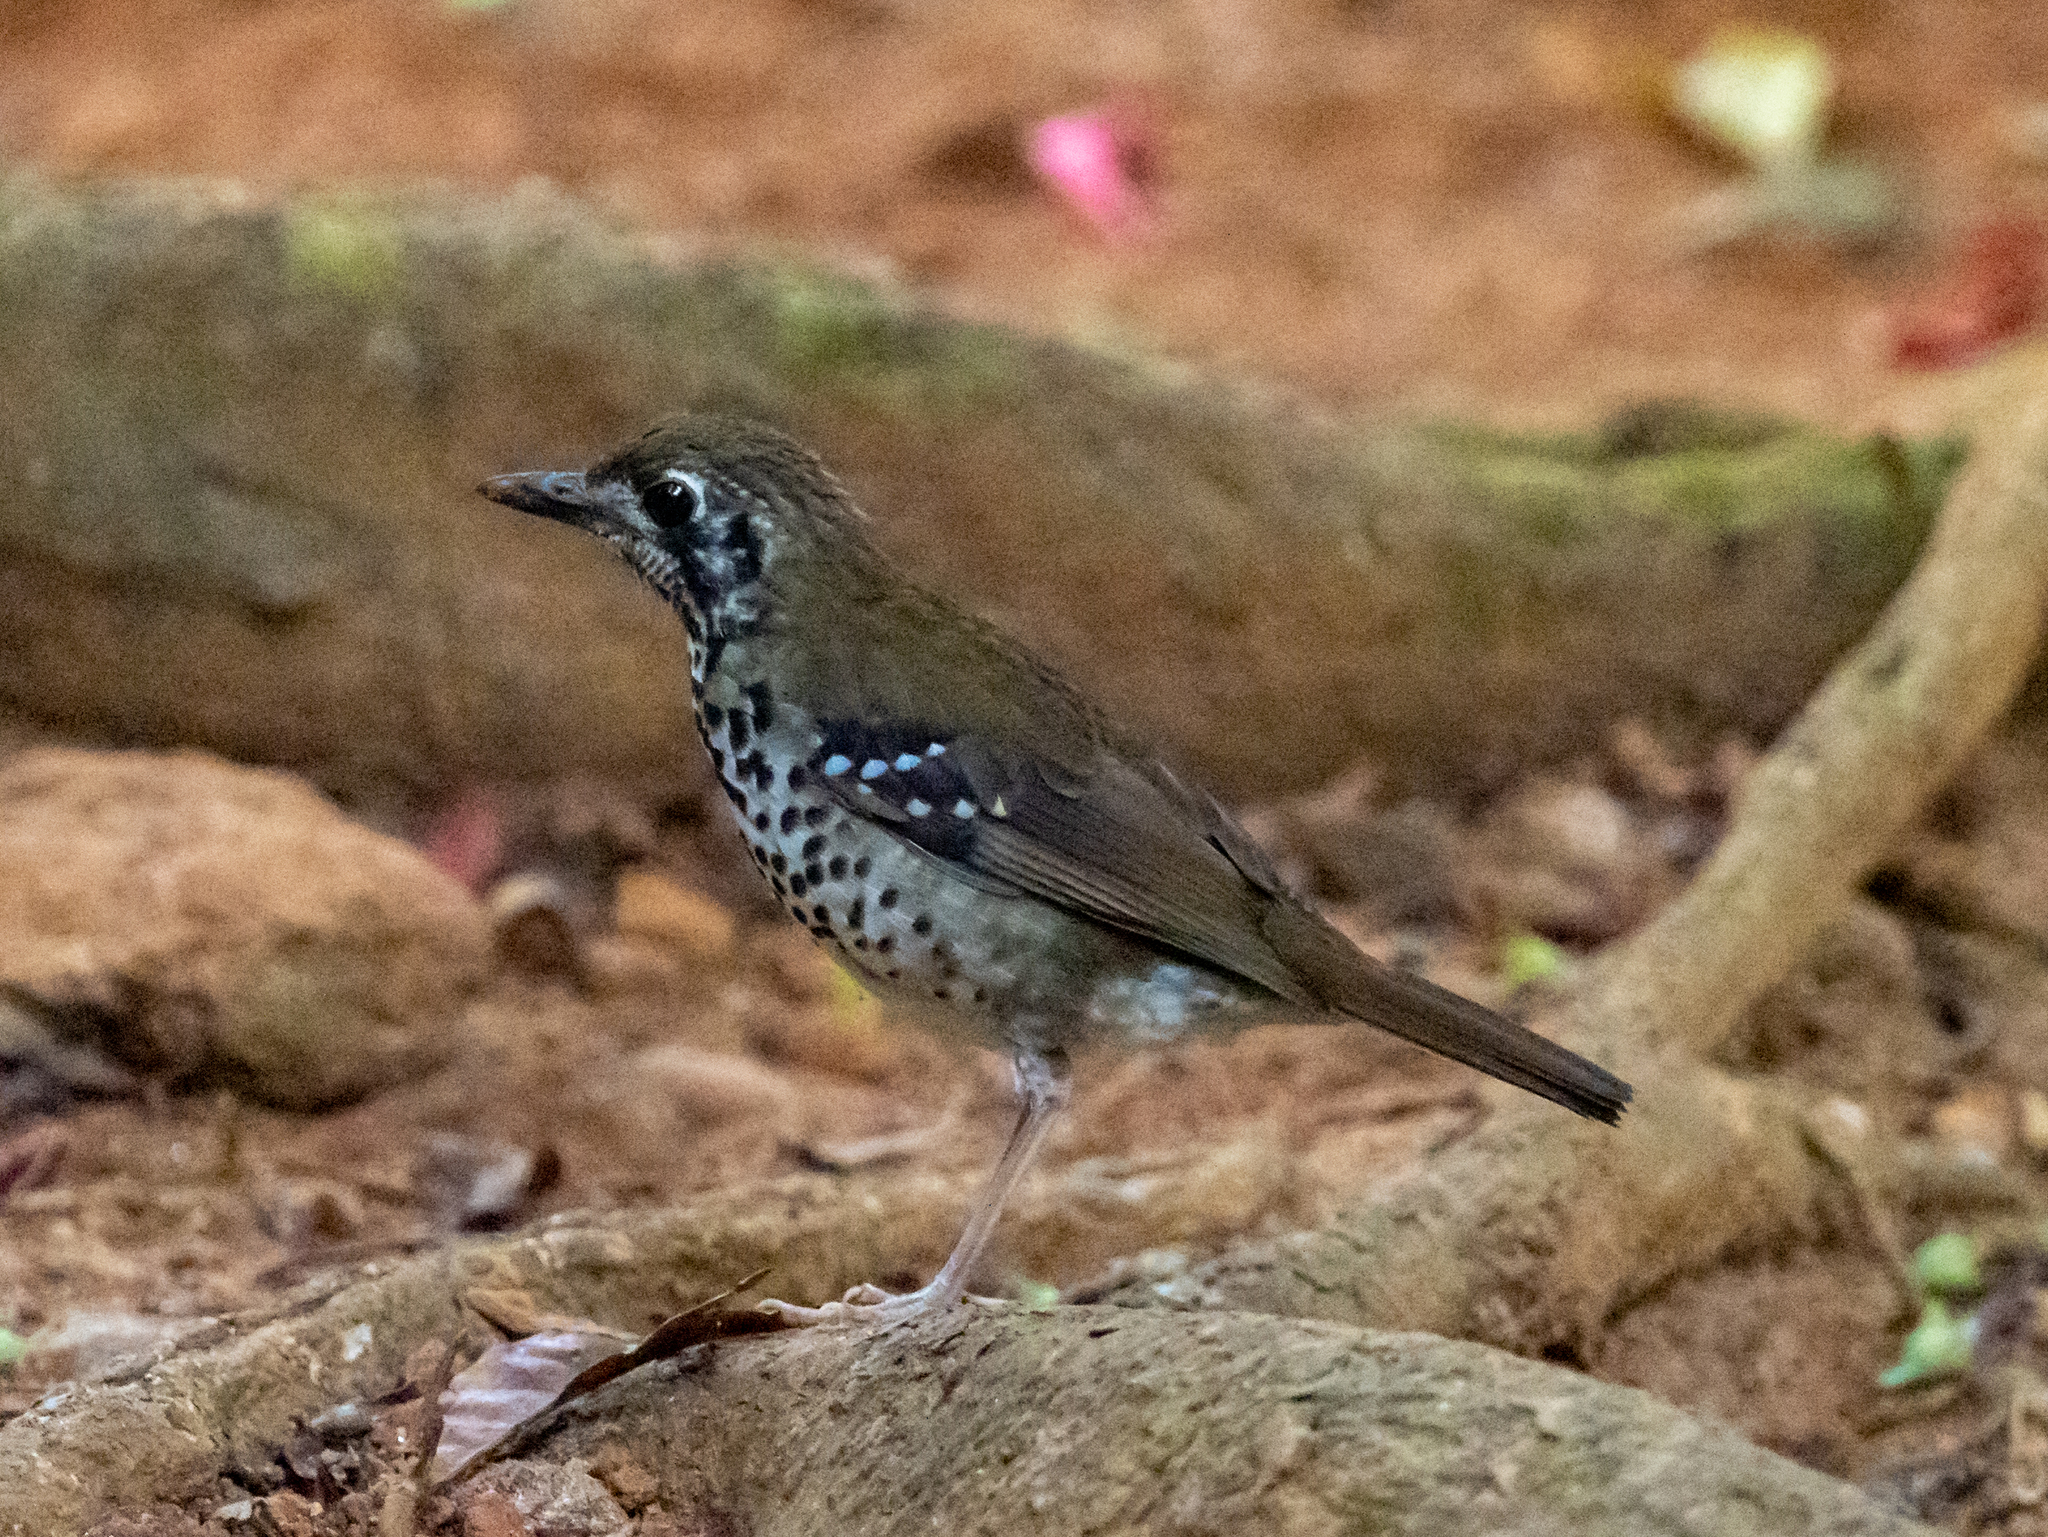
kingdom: Animalia
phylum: Chordata
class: Aves
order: Passeriformes
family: Turdidae
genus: Geokichla
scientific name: Geokichla spiloptera
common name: Spot-winged thrush
